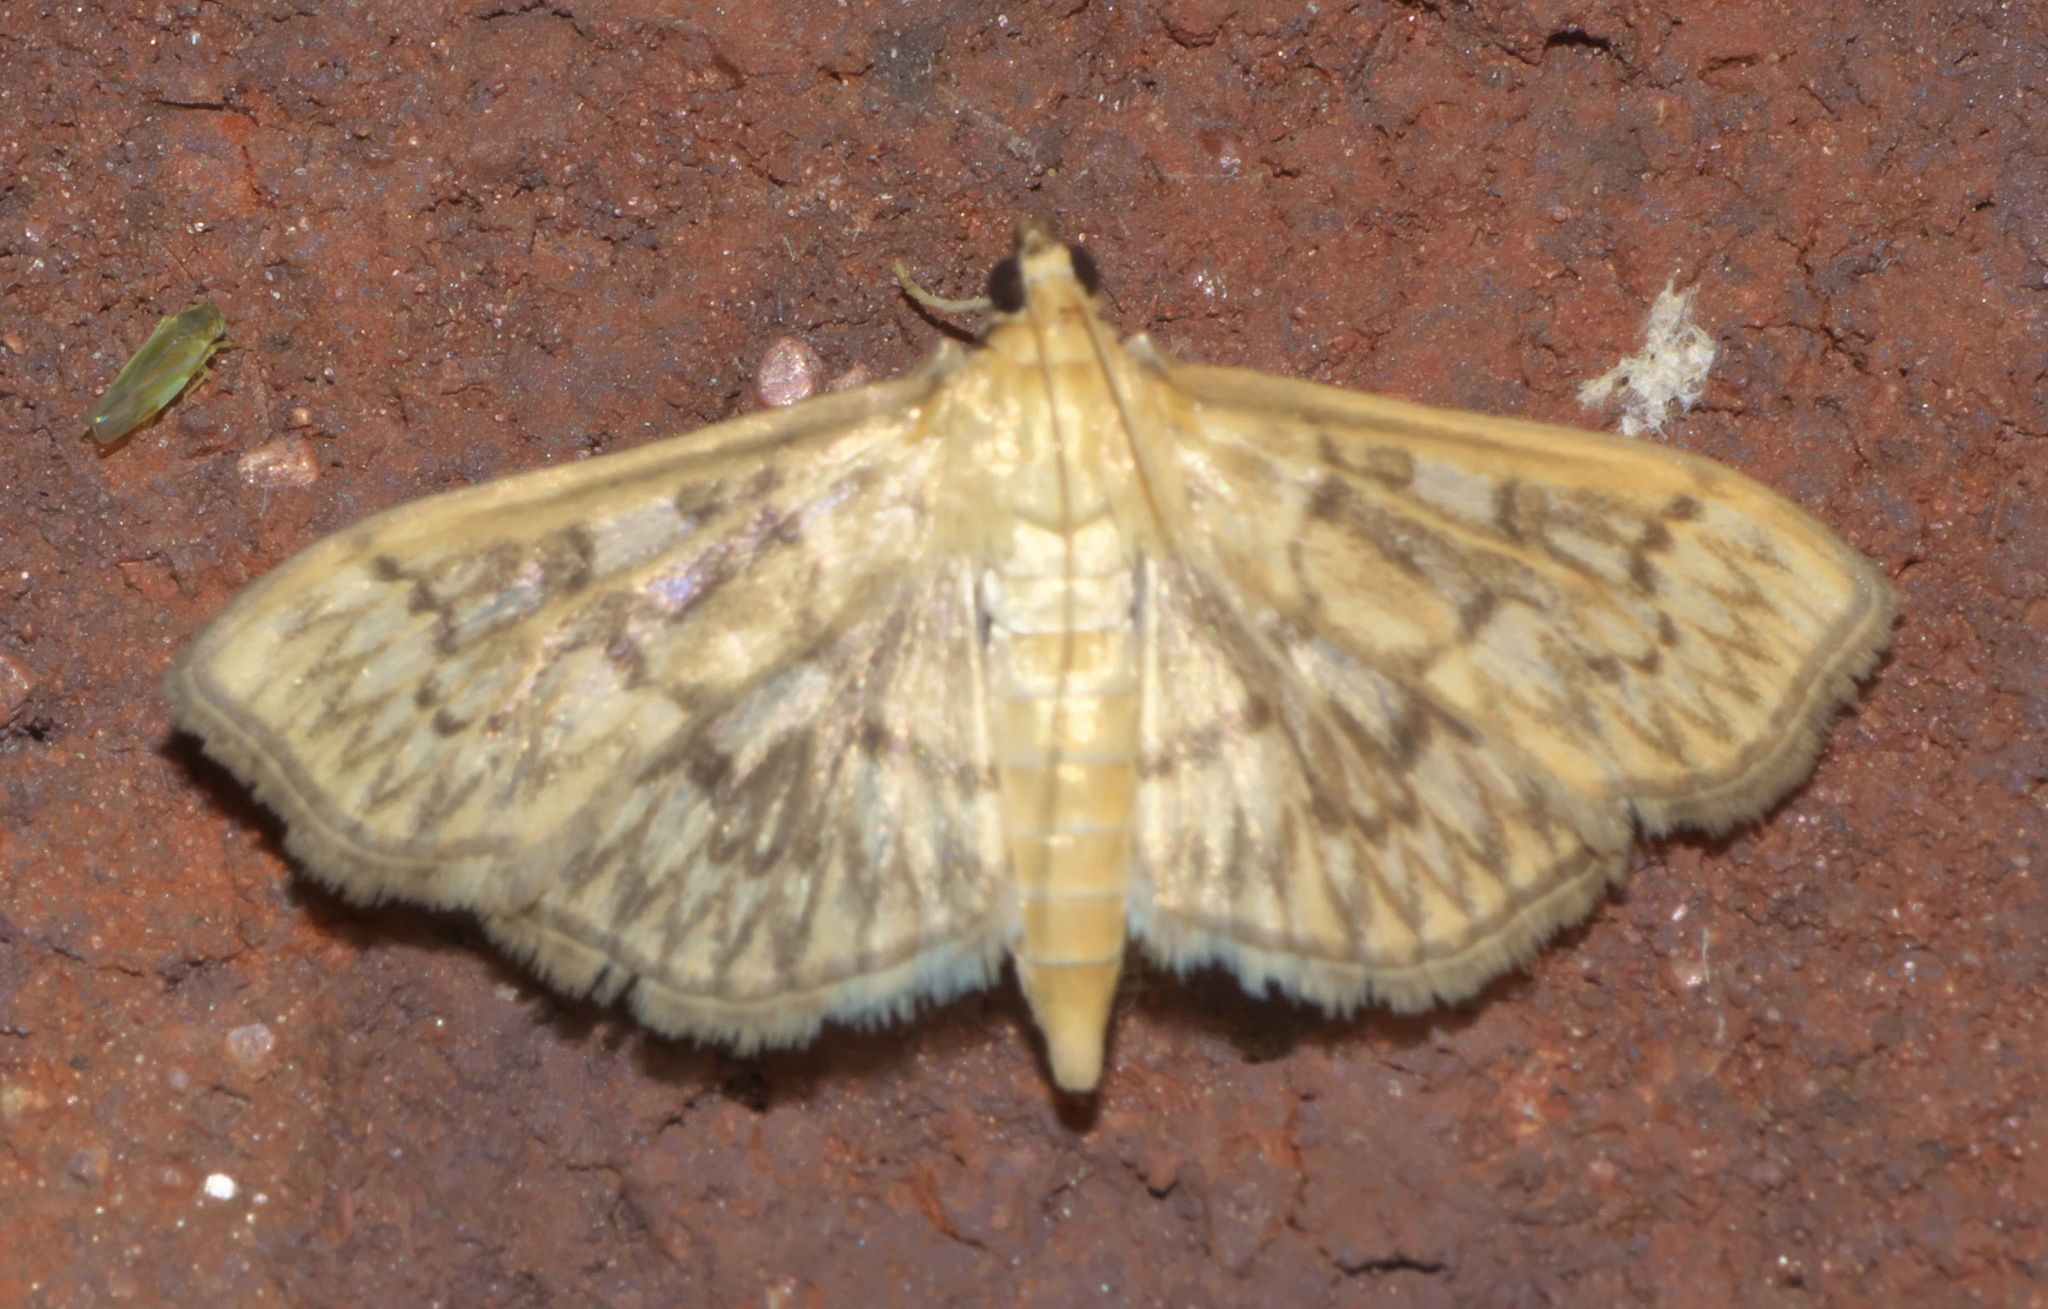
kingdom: Animalia
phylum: Arthropoda
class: Insecta
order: Lepidoptera
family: Crambidae
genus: Herpetogramma
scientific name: Herpetogramma pertextalis
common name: Bold-feathered grass moth
